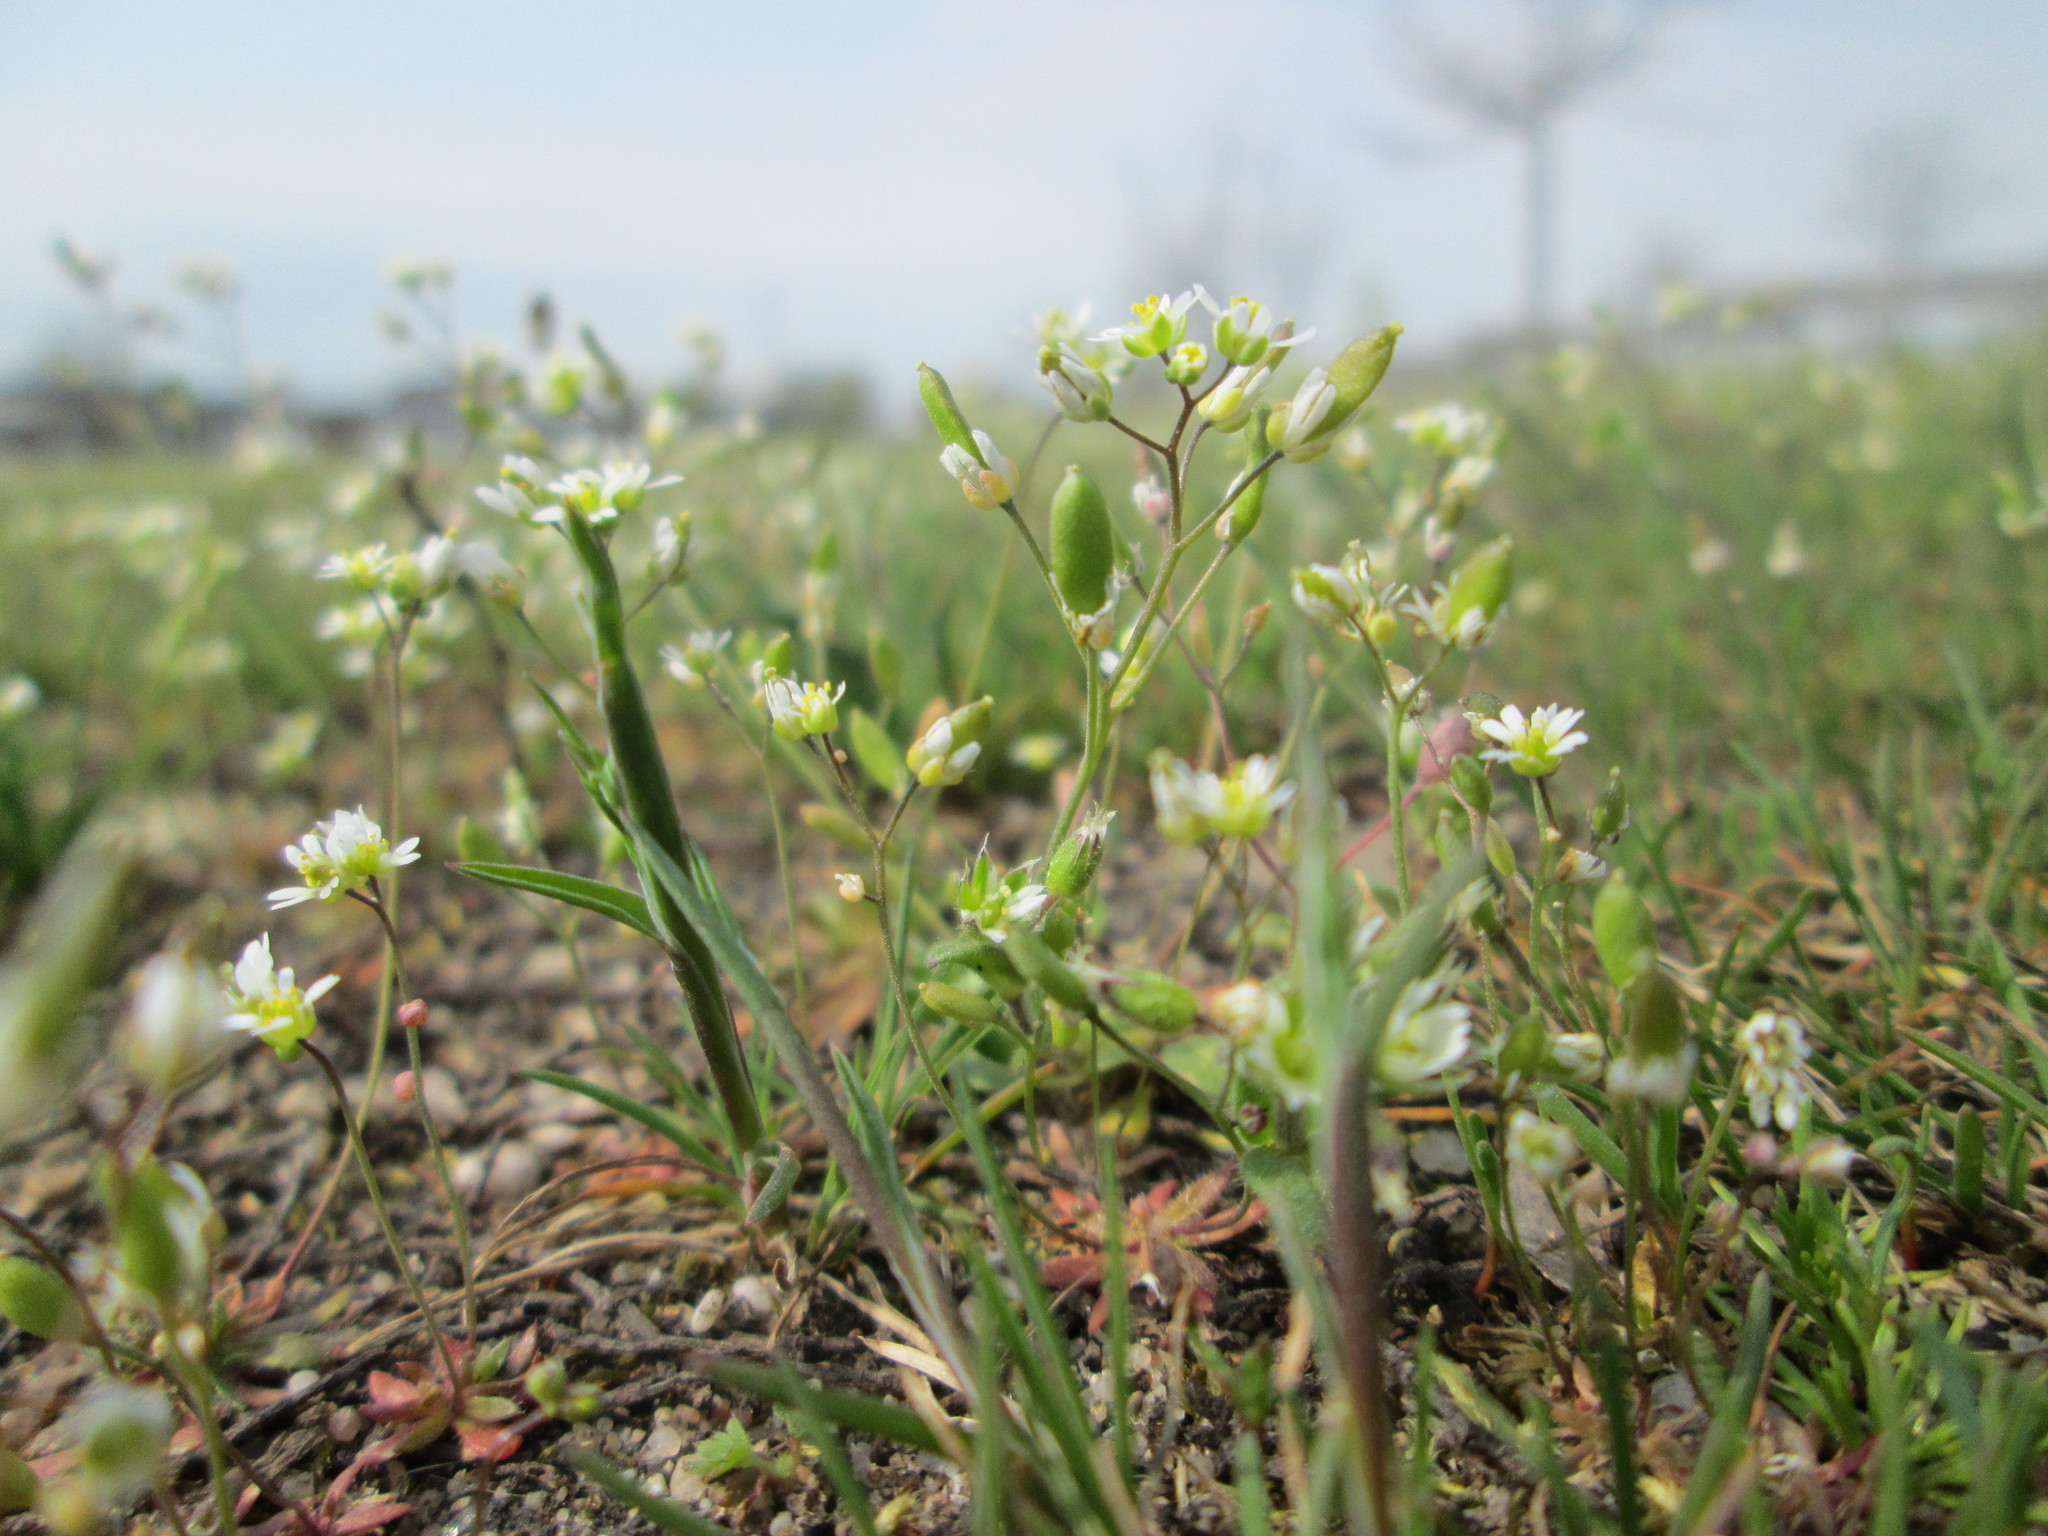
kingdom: Plantae
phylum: Tracheophyta
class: Magnoliopsida
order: Brassicales
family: Brassicaceae
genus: Draba
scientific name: Draba verna
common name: Spring draba
